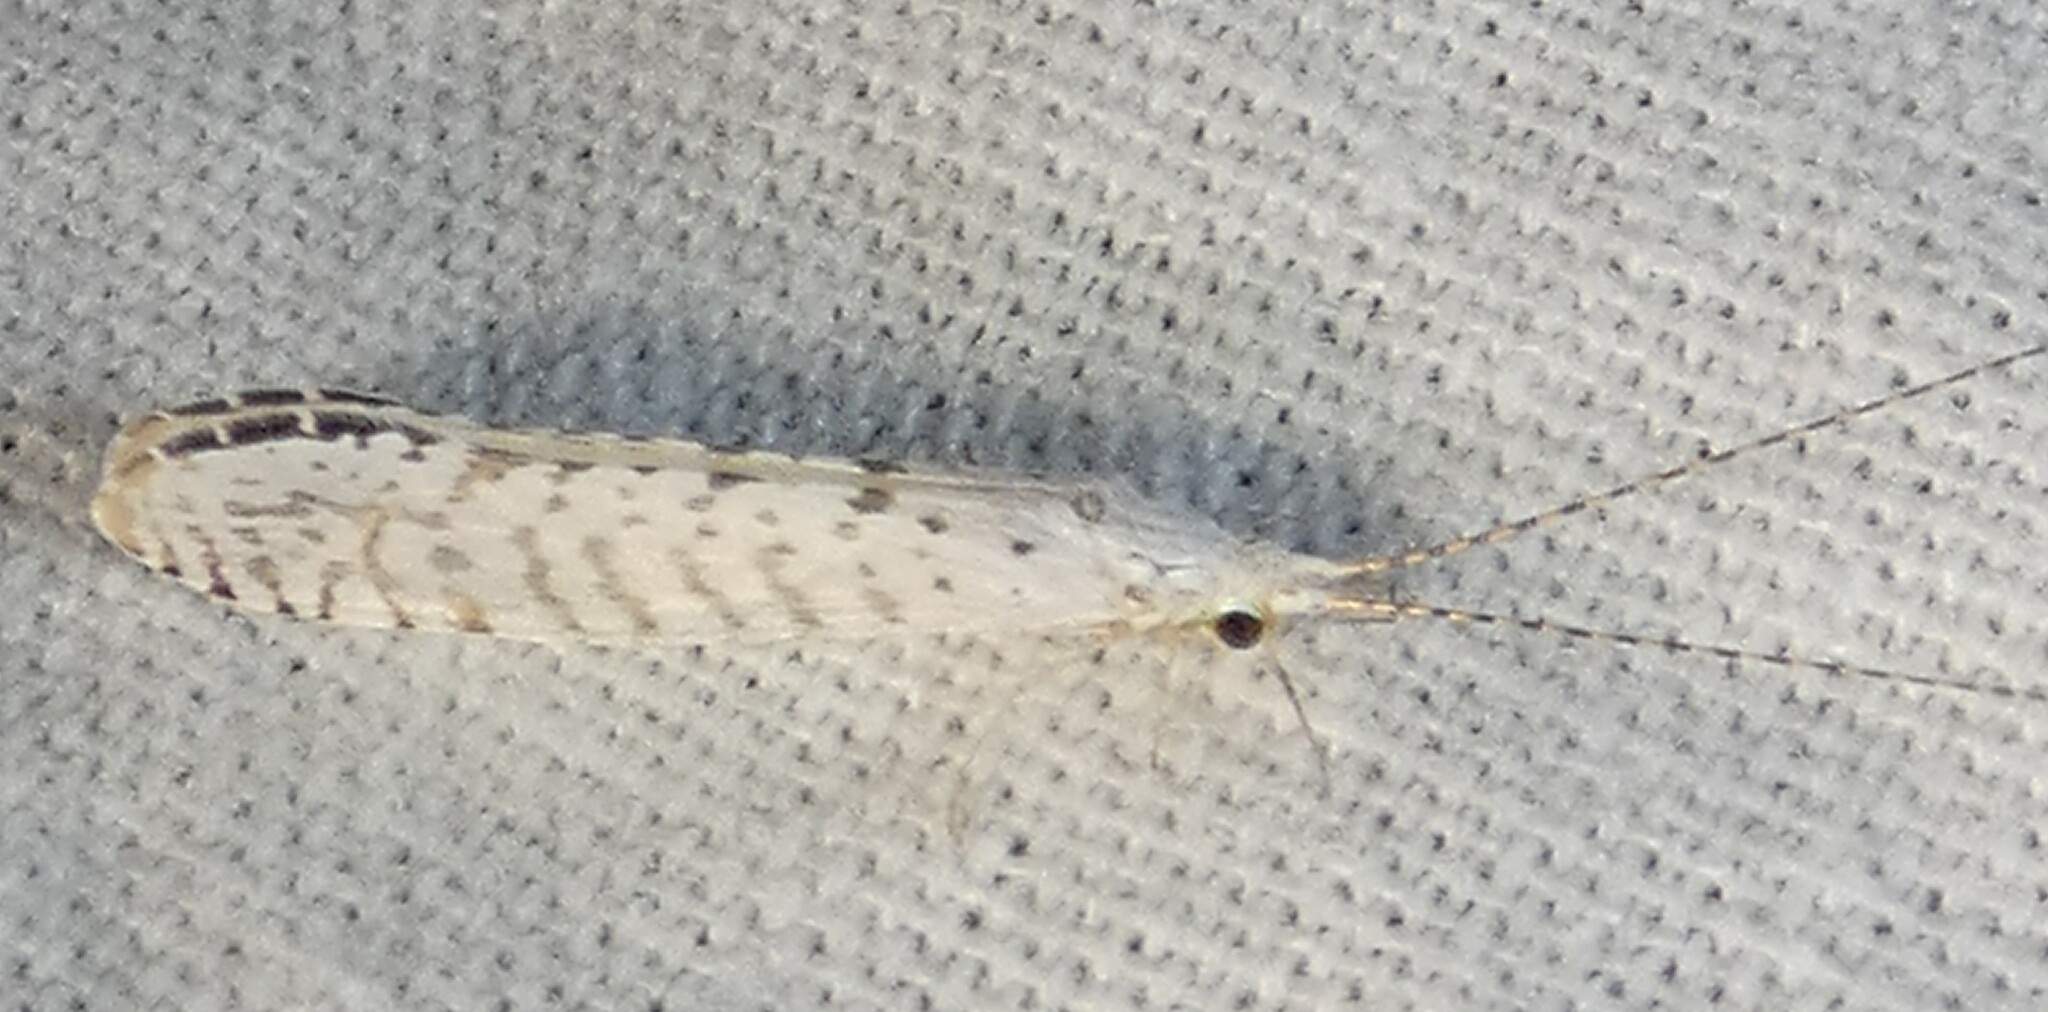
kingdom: Animalia
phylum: Arthropoda
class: Insecta
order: Trichoptera
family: Leptoceridae
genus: Nectopsyche
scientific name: Nectopsyche candida
